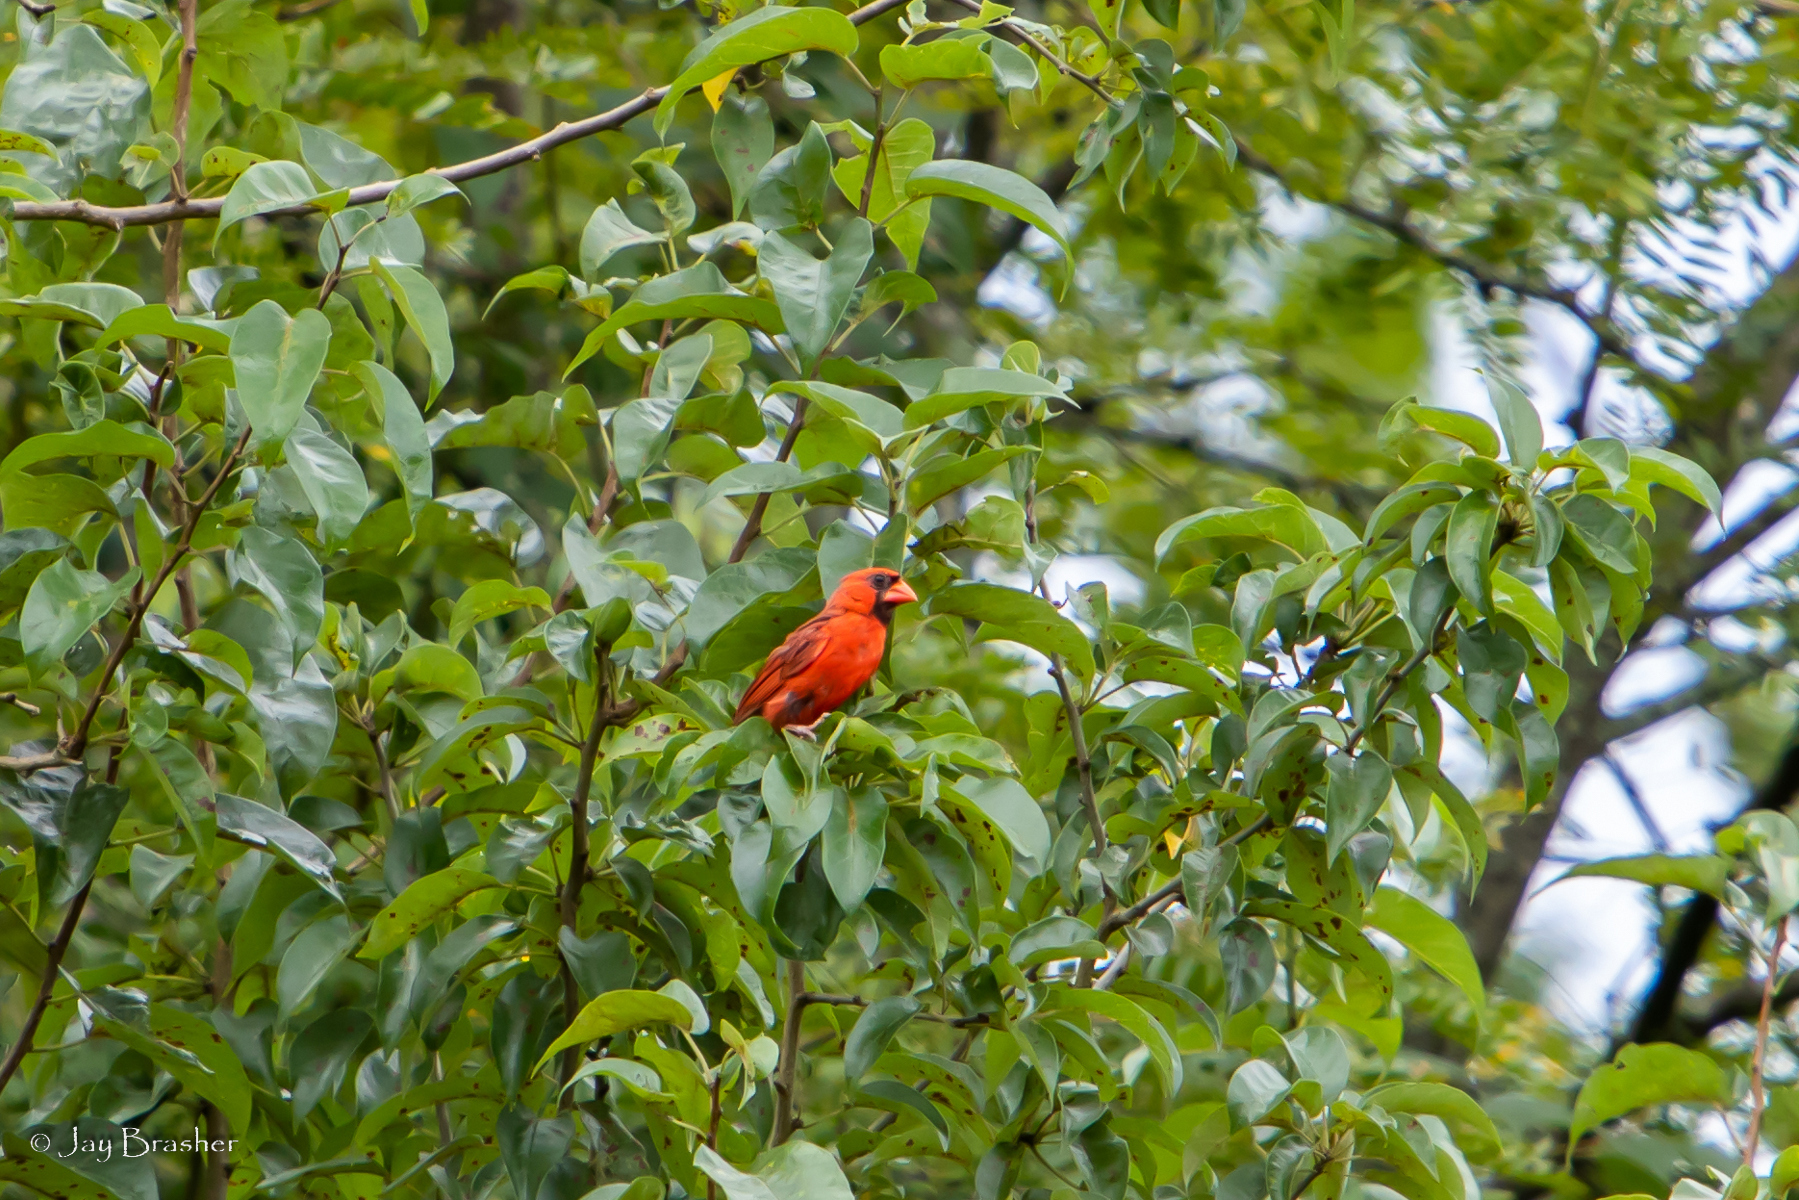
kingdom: Animalia
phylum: Chordata
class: Aves
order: Passeriformes
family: Cardinalidae
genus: Cardinalis
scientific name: Cardinalis cardinalis
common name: Northern cardinal
